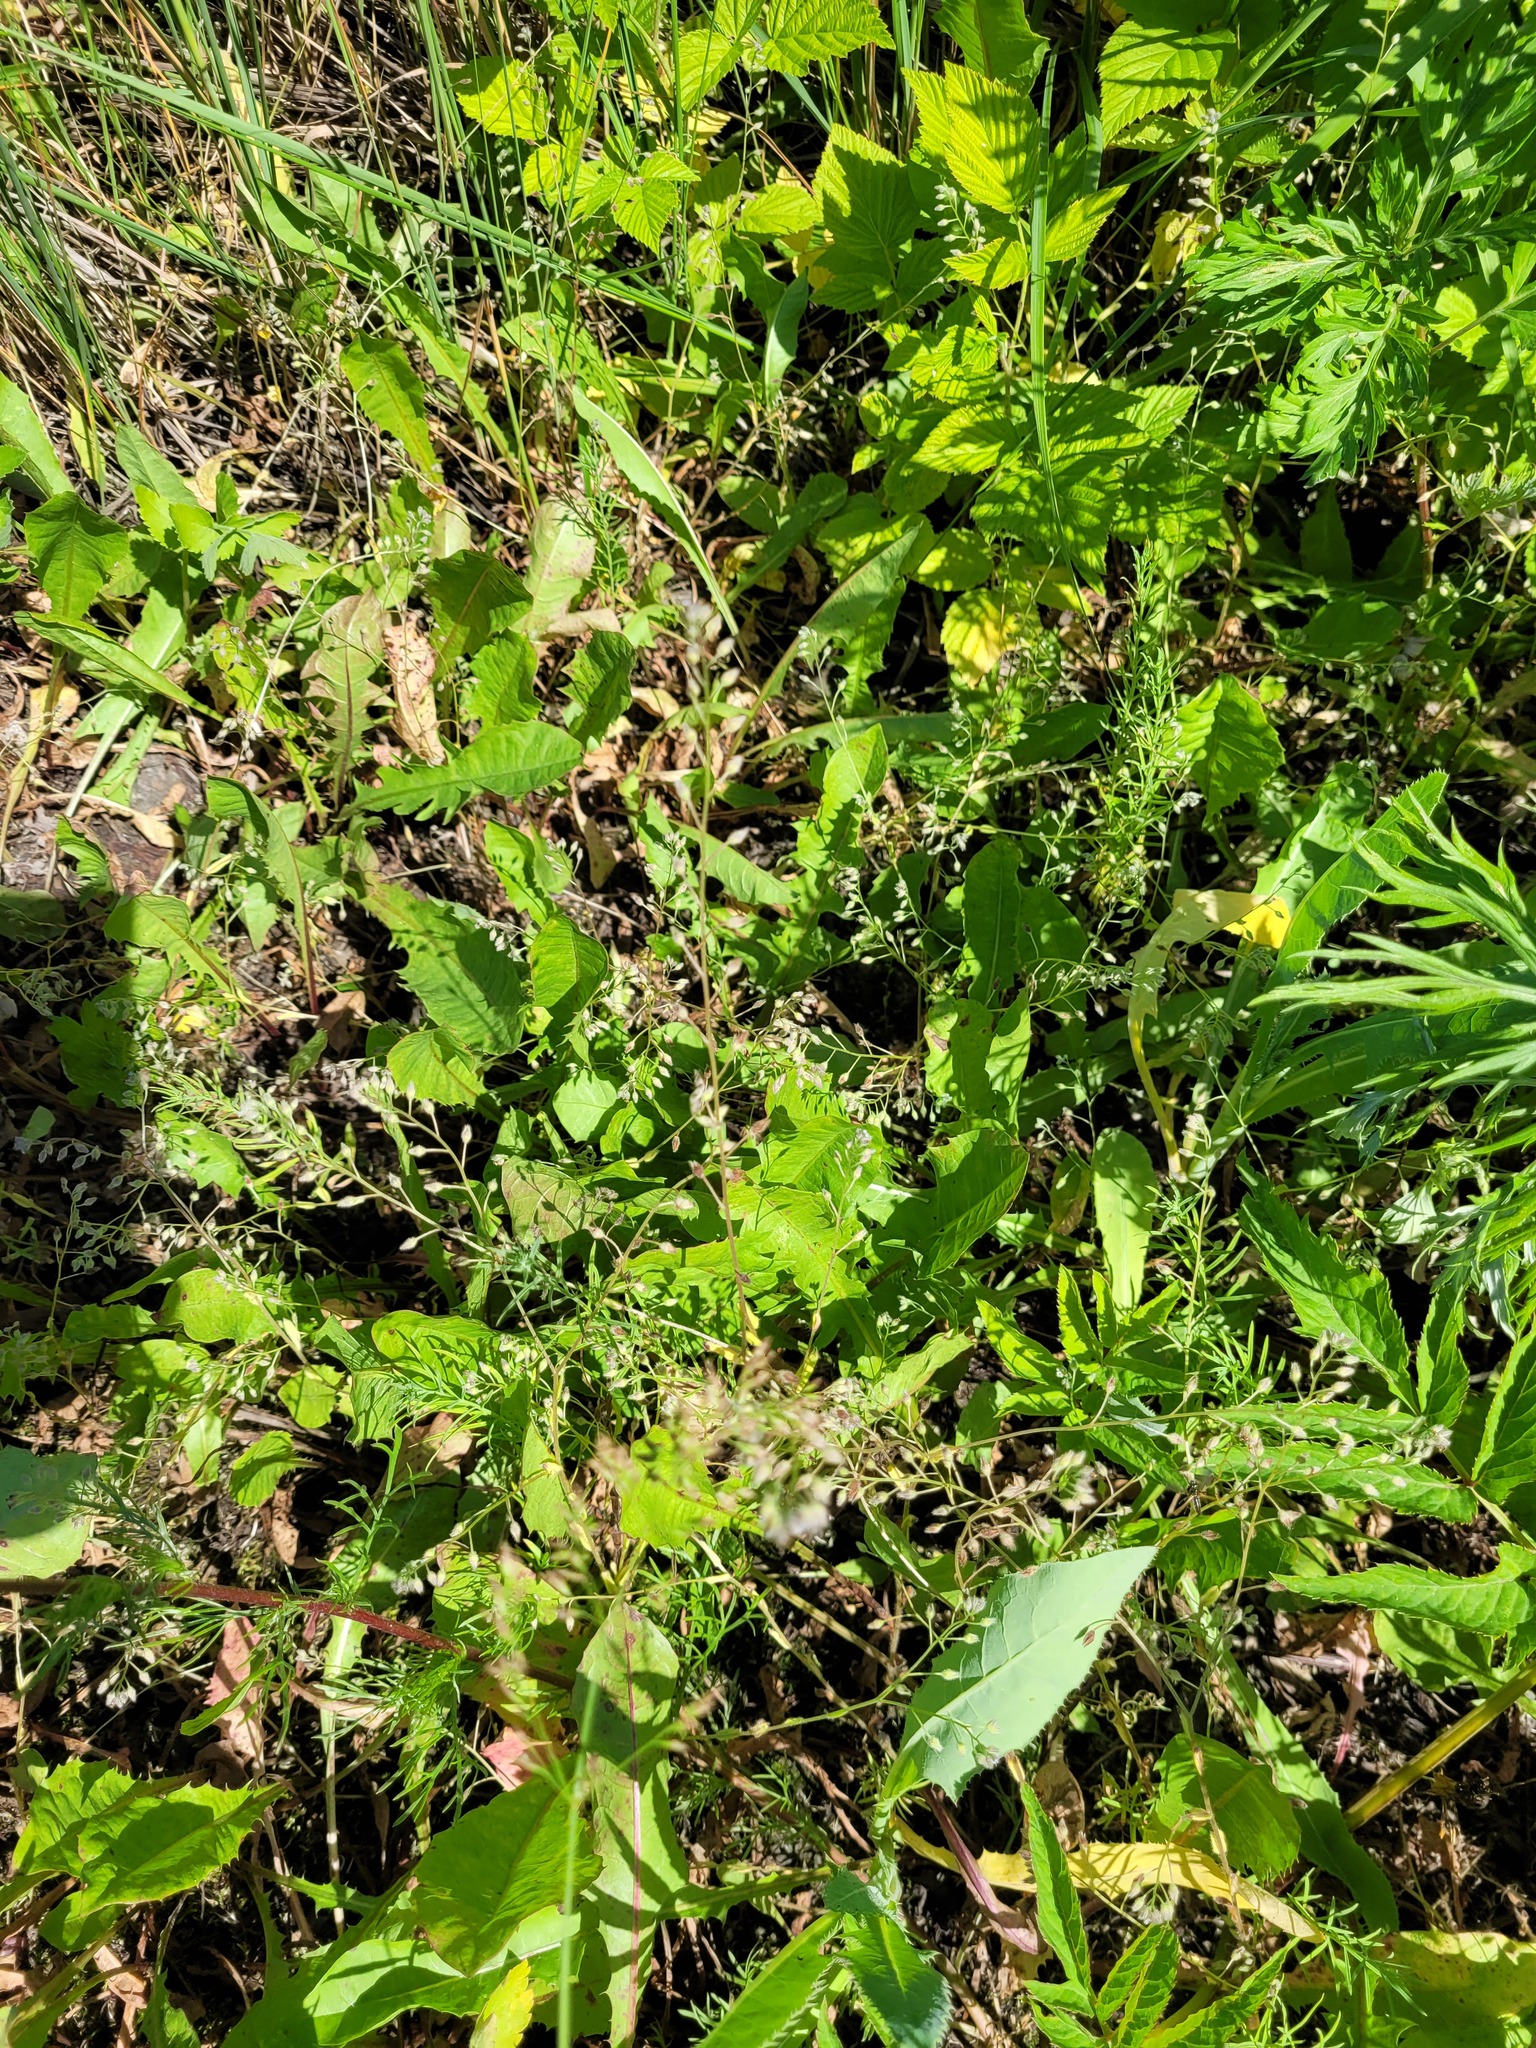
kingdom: Plantae
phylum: Tracheophyta
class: Magnoliopsida
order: Boraginales
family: Boraginaceae
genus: Myosotis
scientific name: Myosotis arvensis
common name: Field forget-me-not
